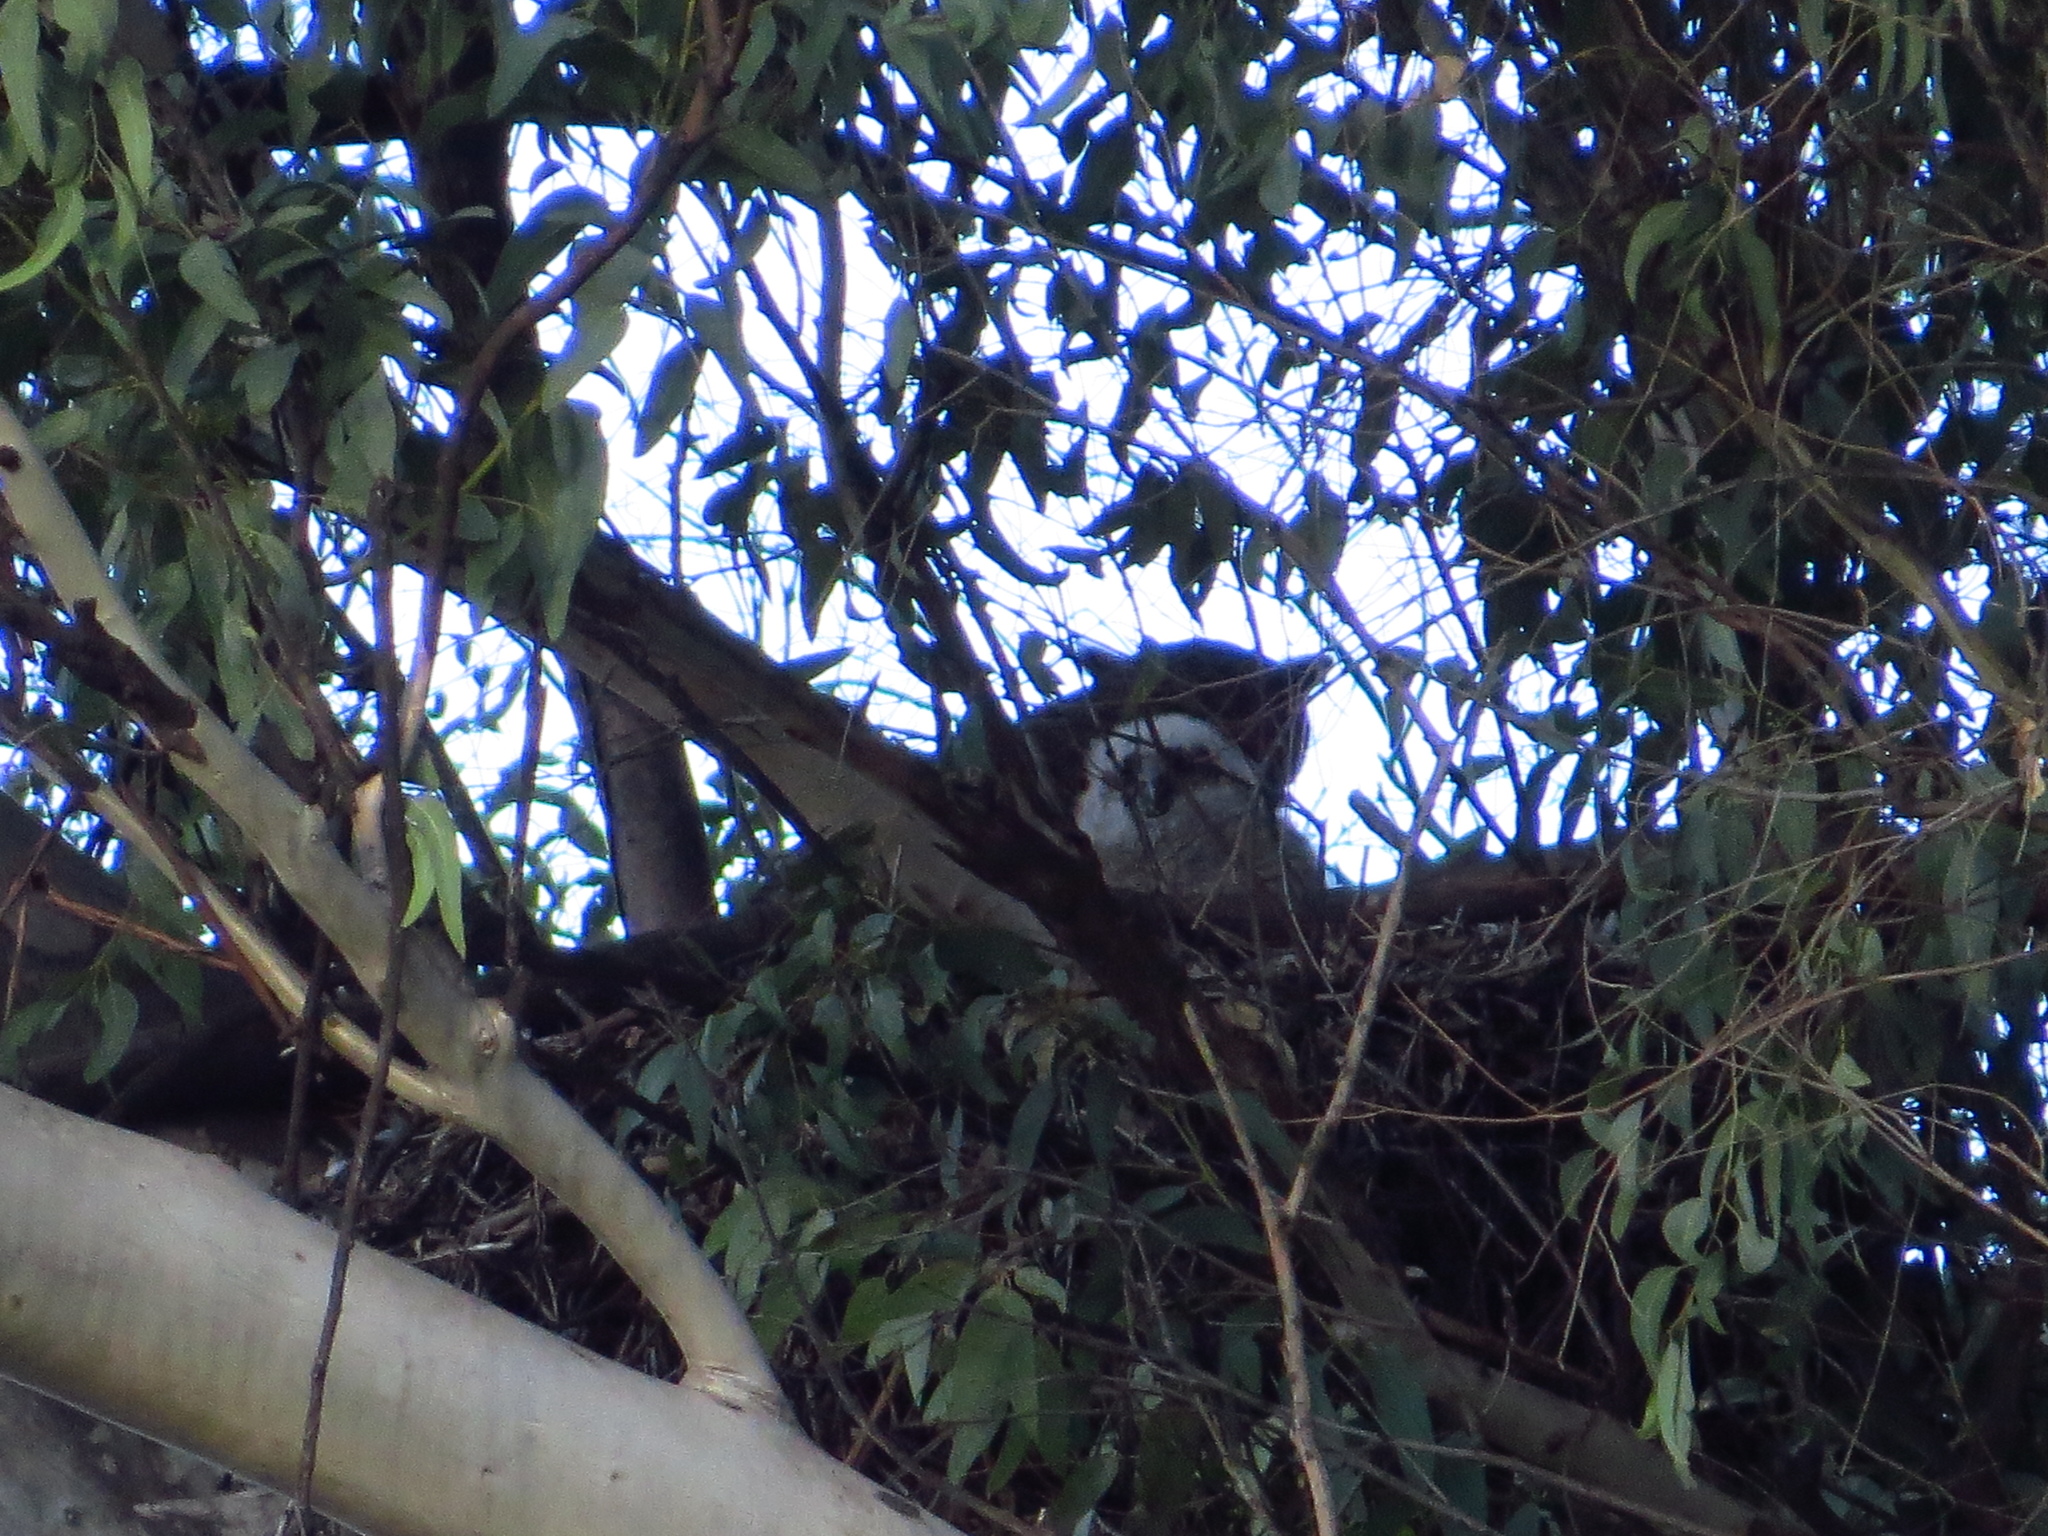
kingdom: Animalia
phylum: Chordata
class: Aves
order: Strigiformes
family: Strigidae
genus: Bubo
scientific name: Bubo virginianus
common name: Great horned owl
